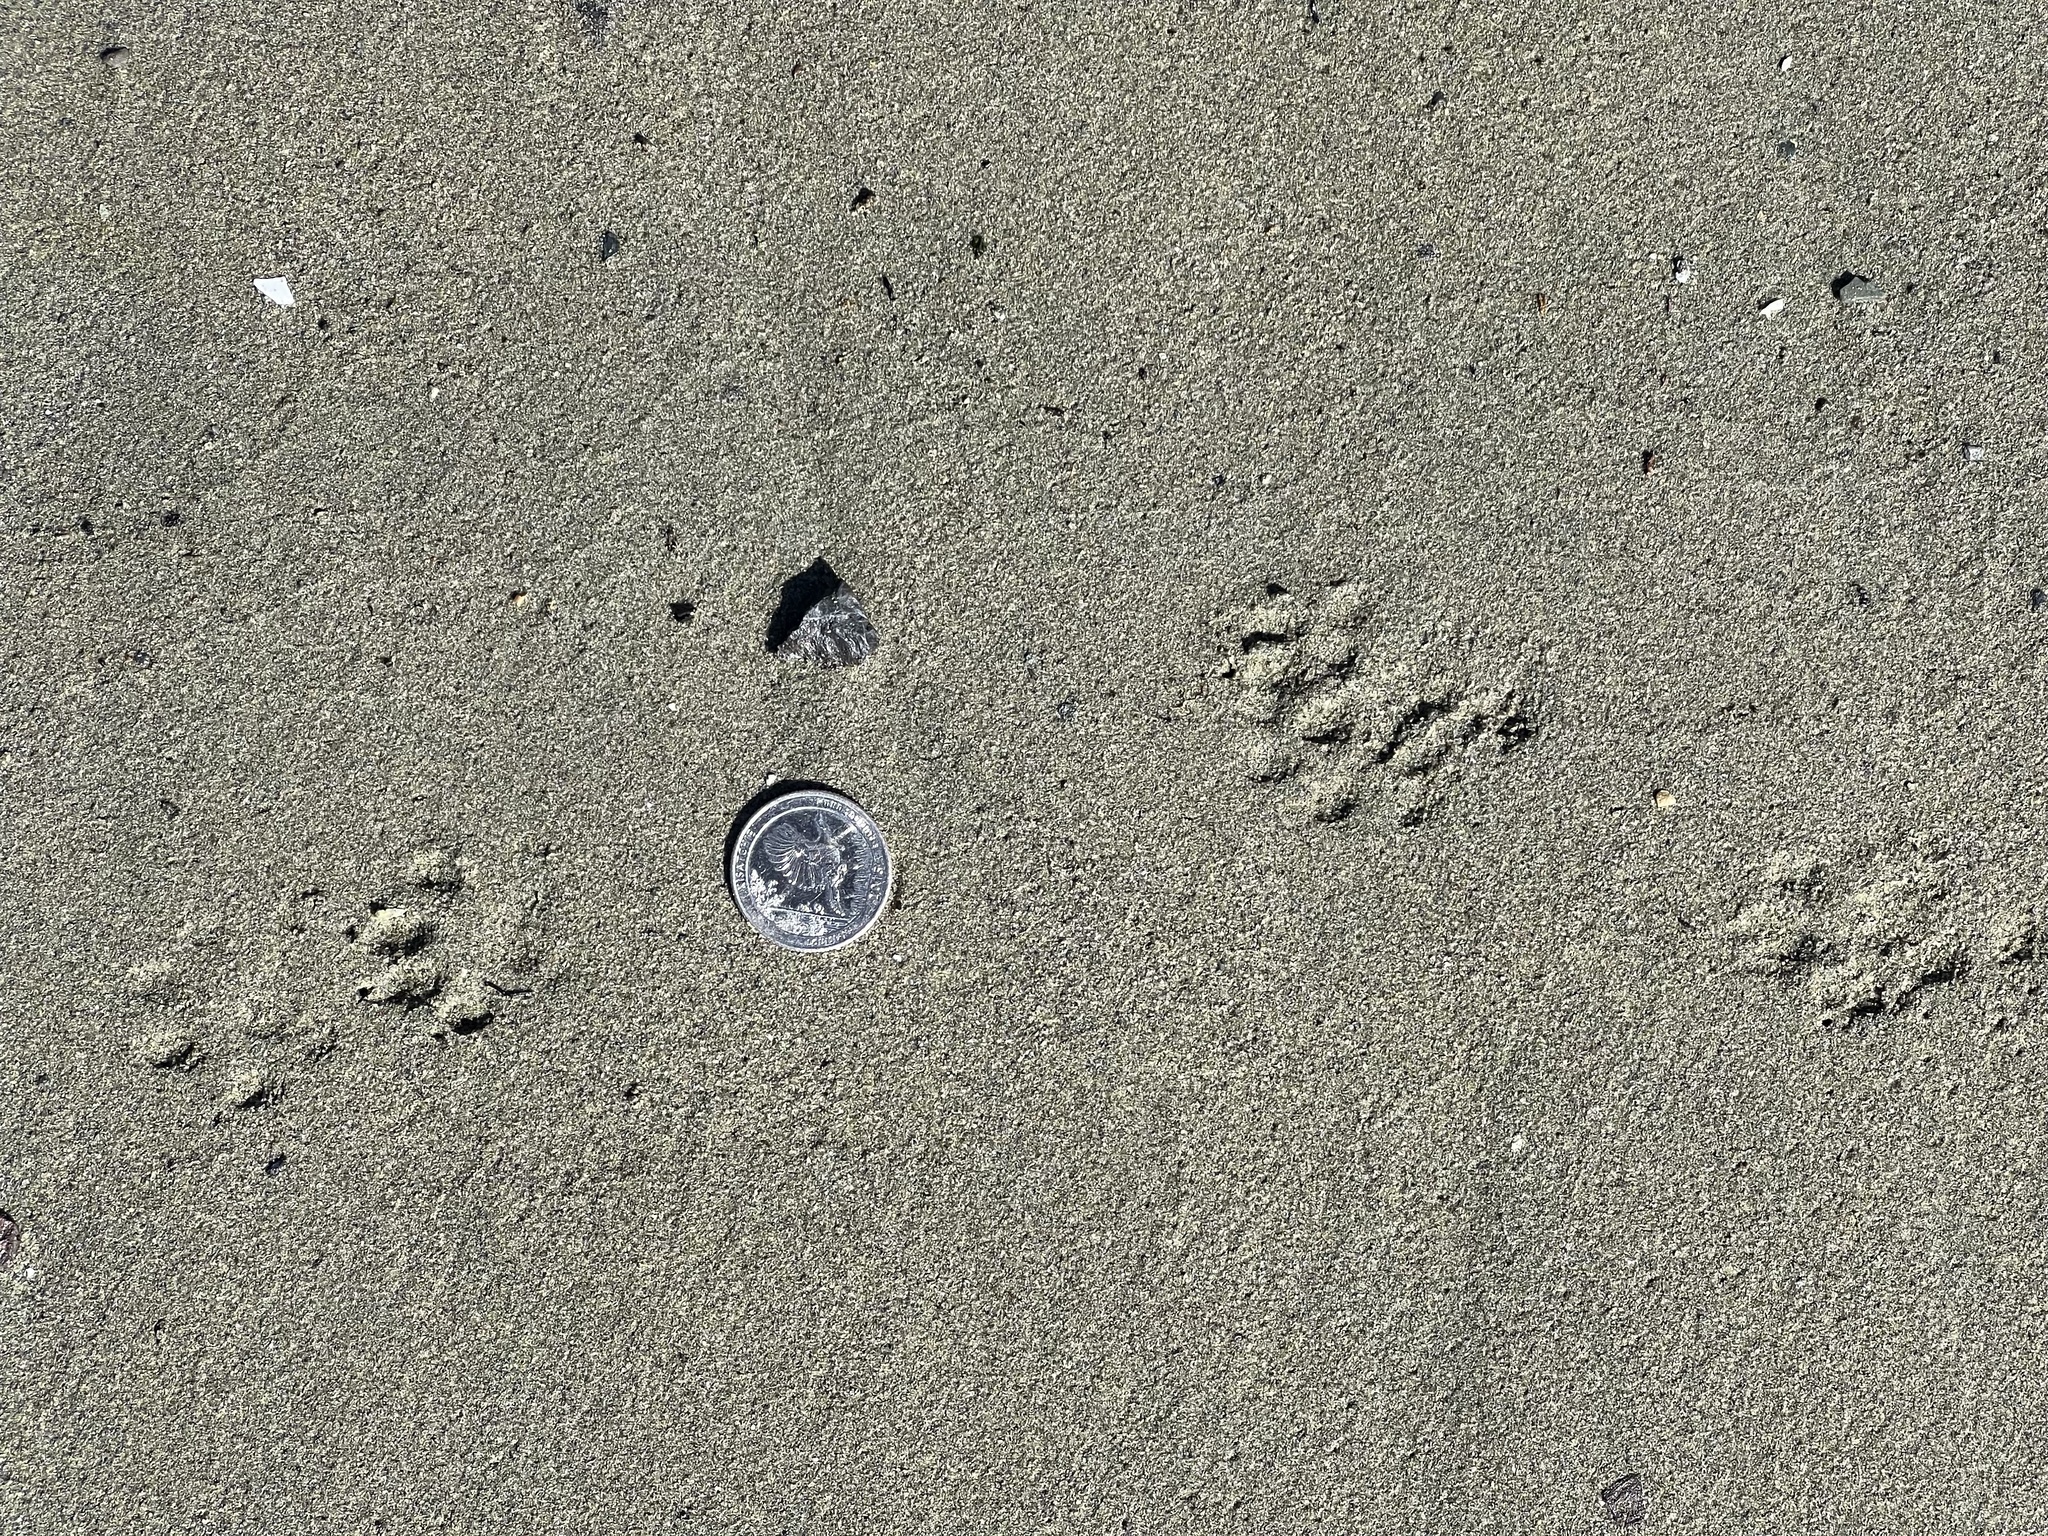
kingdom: Animalia
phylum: Chordata
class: Mammalia
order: Carnivora
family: Mustelidae
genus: Mustela
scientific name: Mustela
